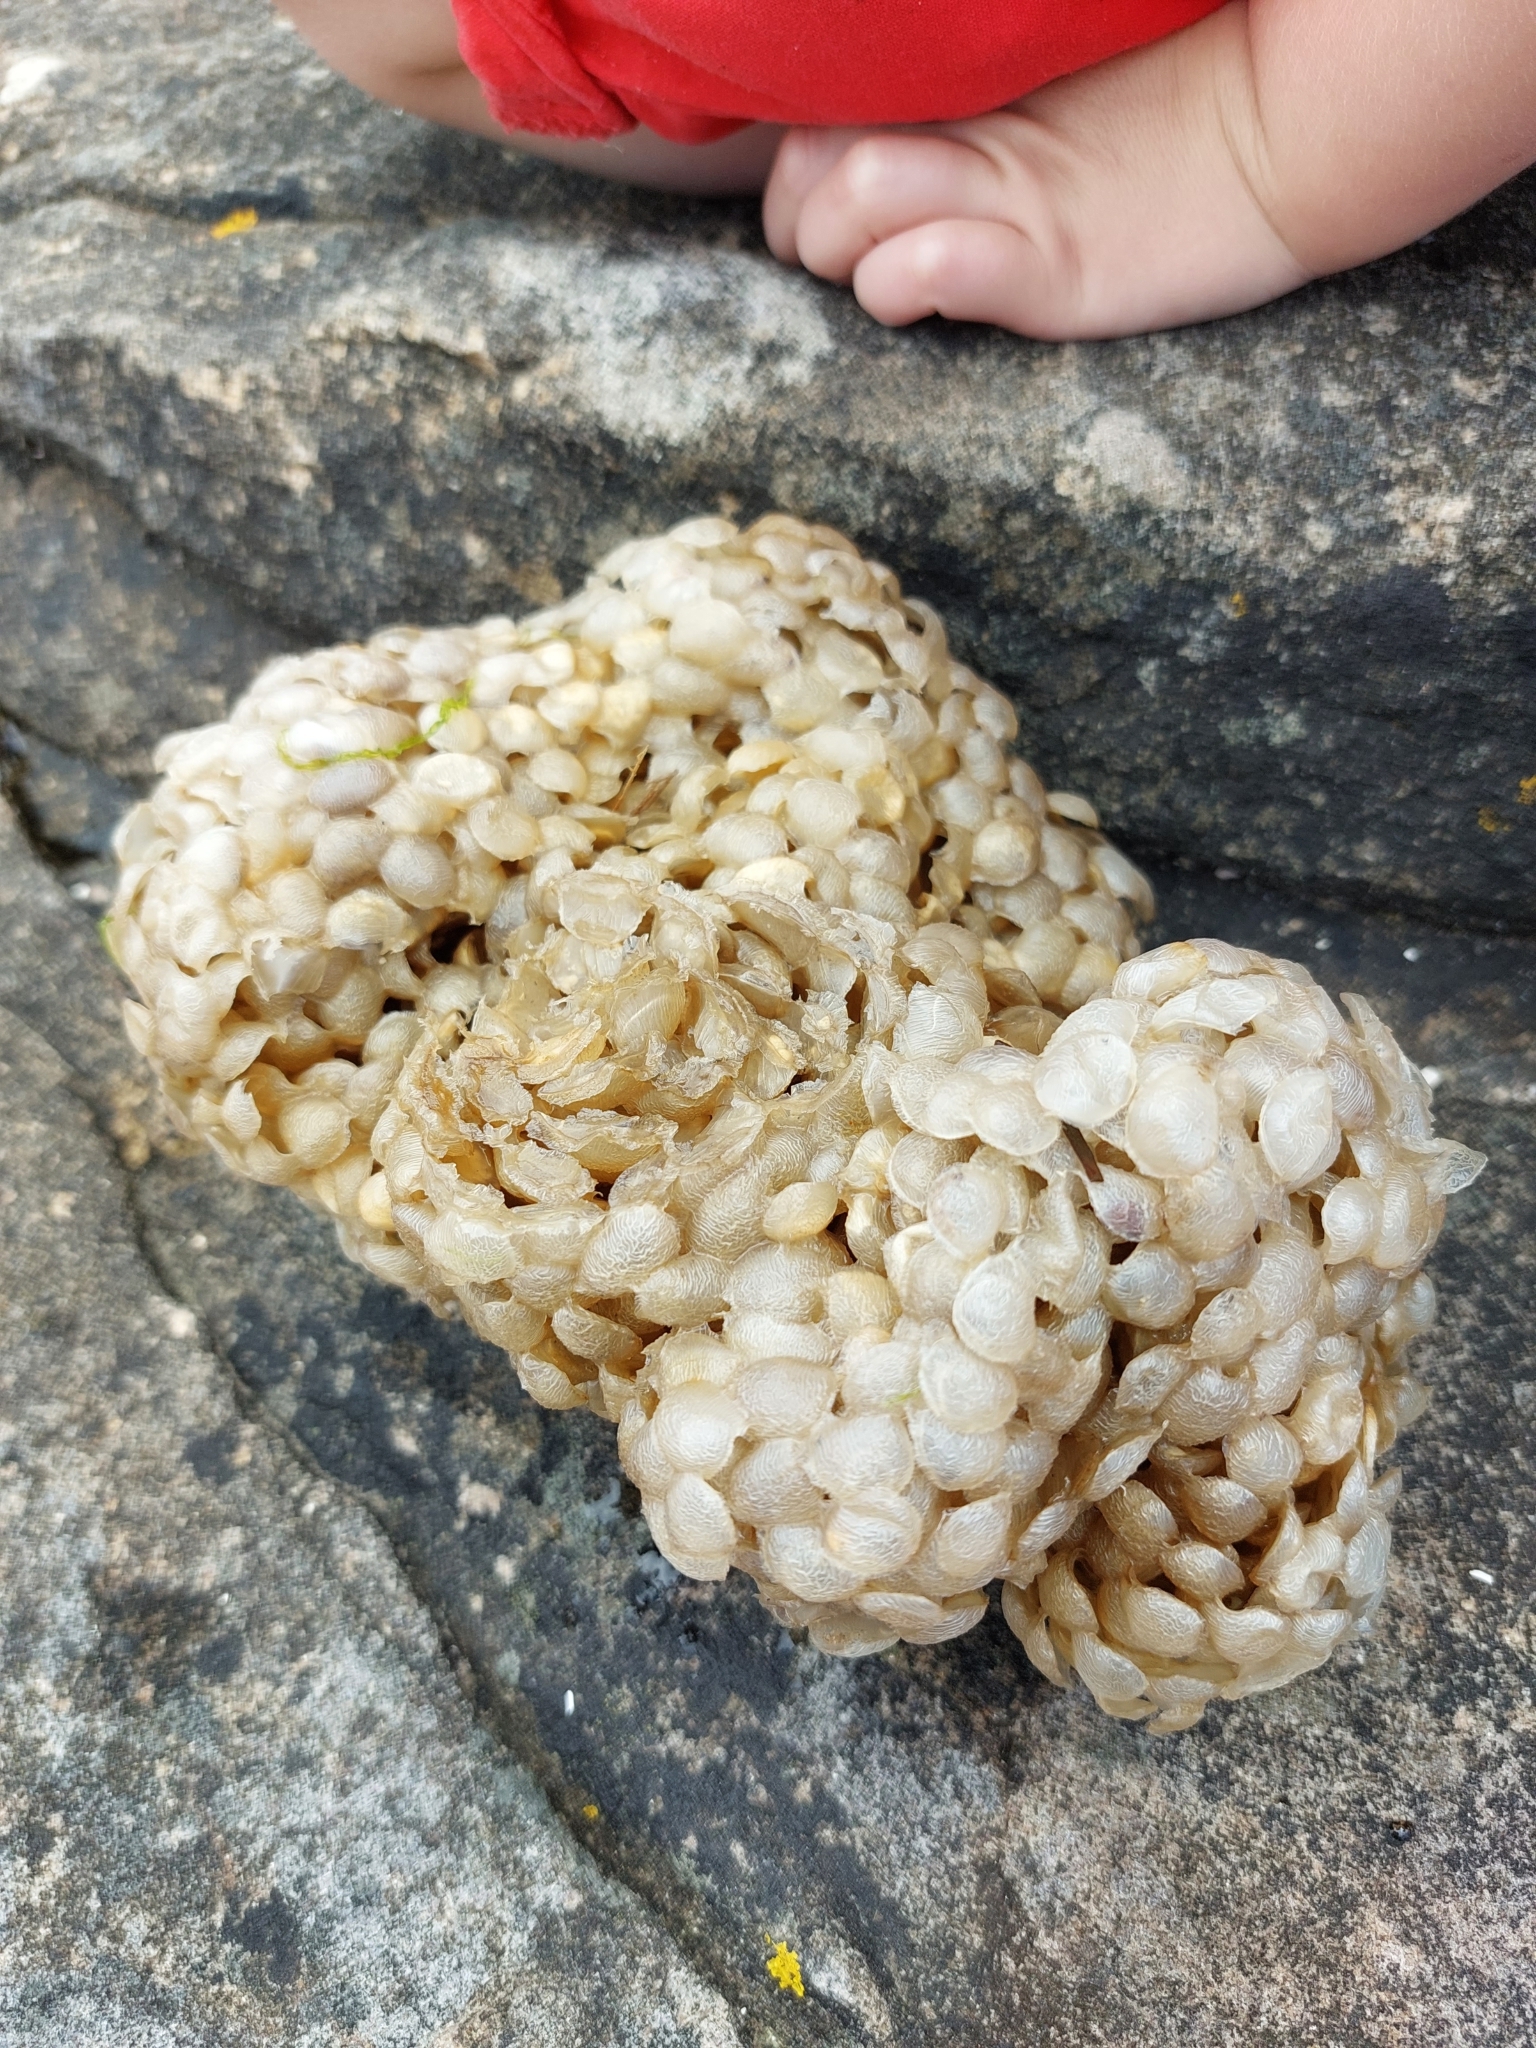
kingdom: Animalia
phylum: Mollusca
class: Gastropoda
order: Neogastropoda
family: Buccinidae
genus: Buccinum
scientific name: Buccinum undatum
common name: Common whelk
